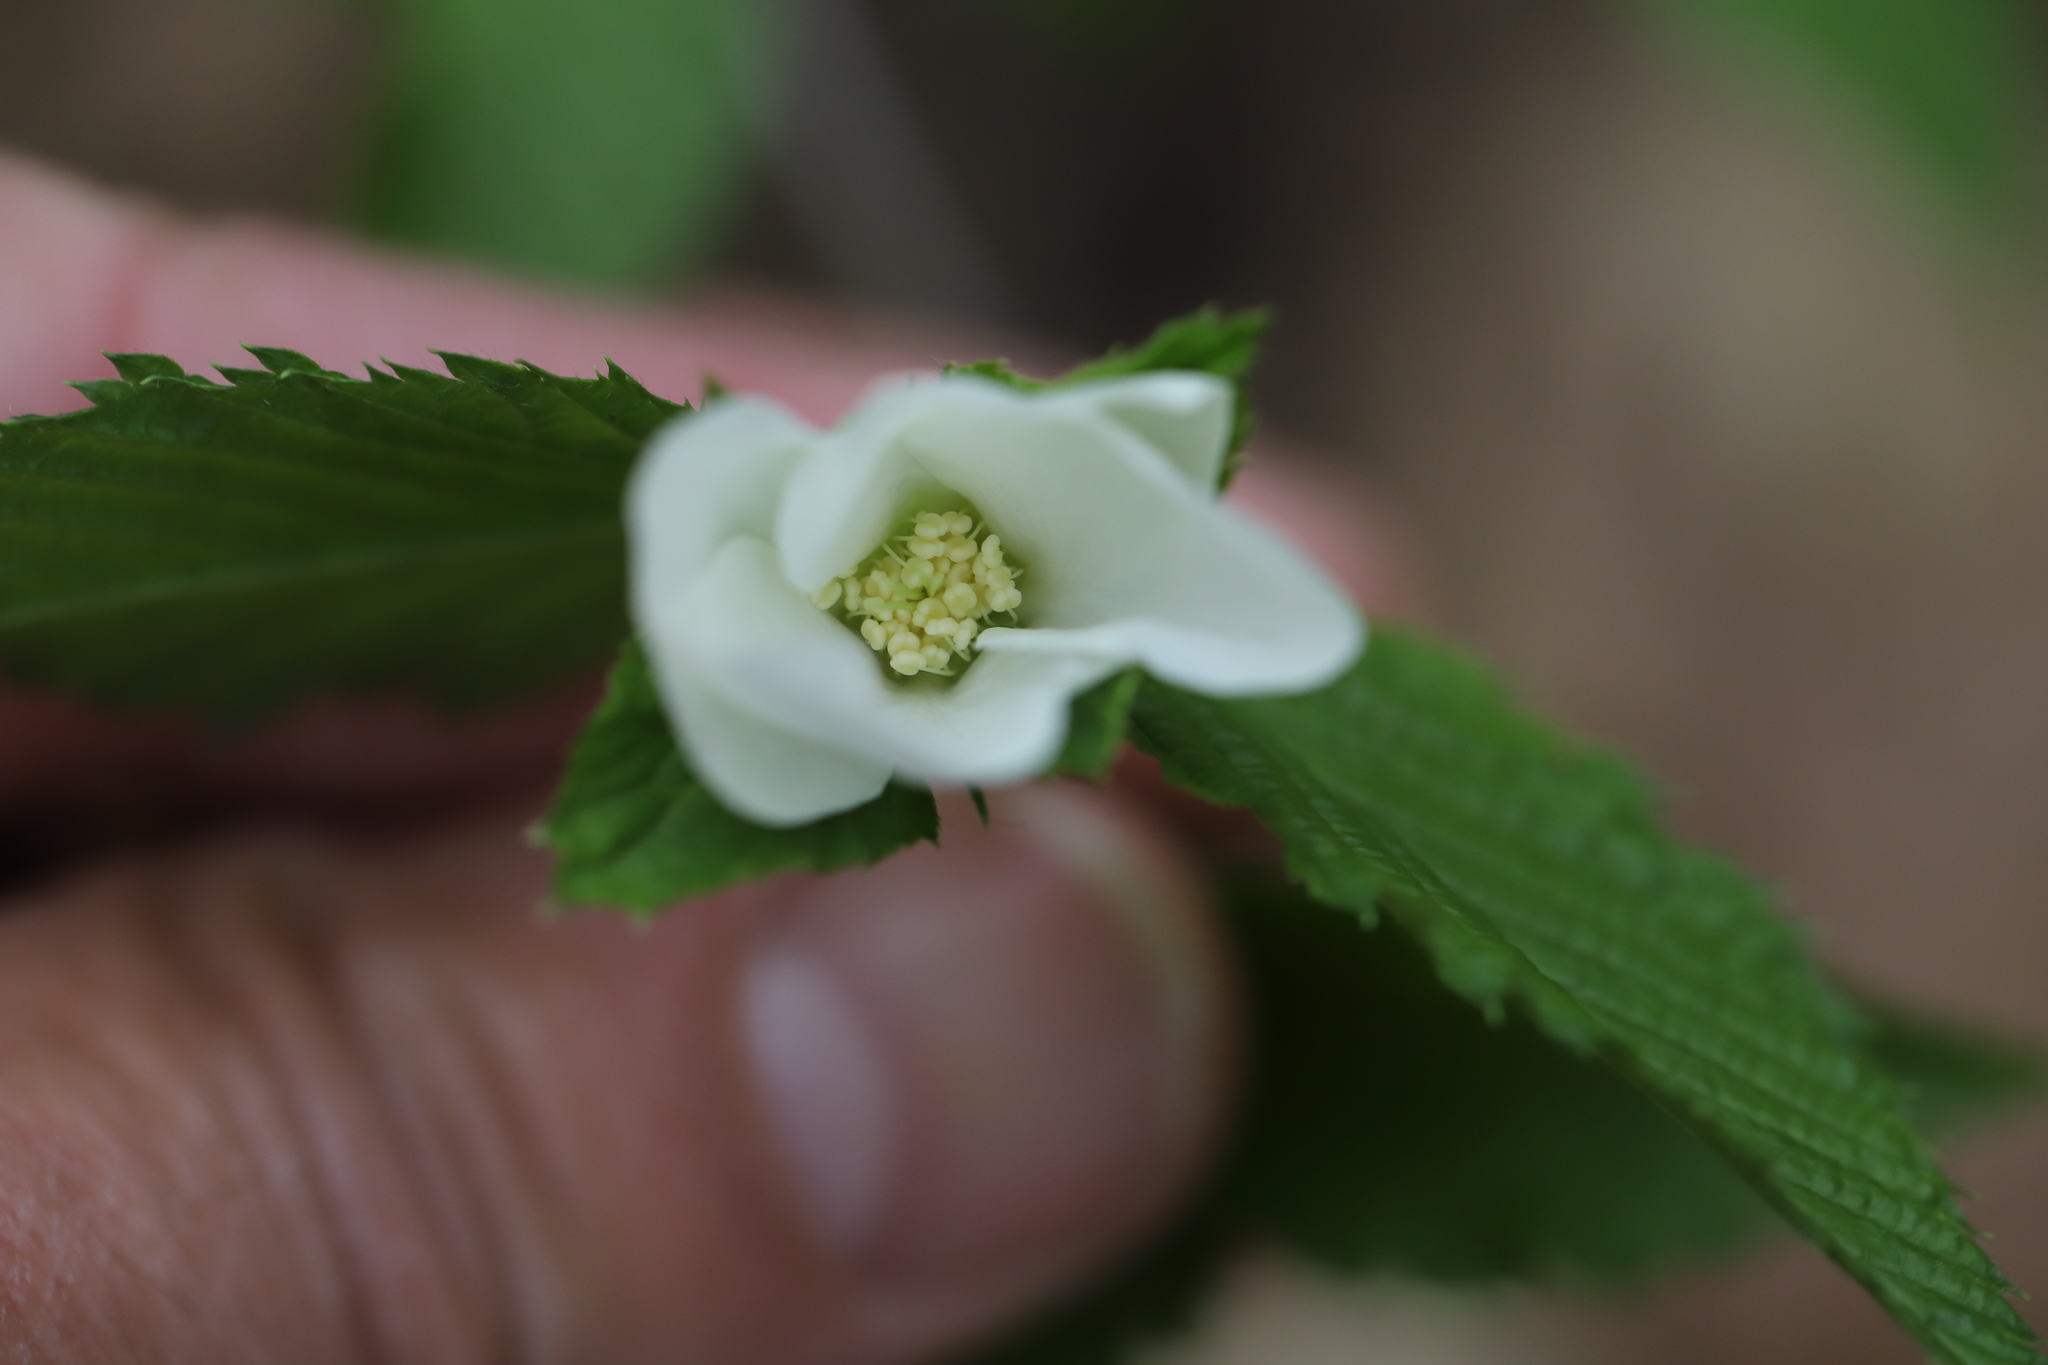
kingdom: Plantae
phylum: Tracheophyta
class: Magnoliopsida
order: Rosales
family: Rosaceae
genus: Rhodotypos
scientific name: Rhodotypos scandens
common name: Jetbead
